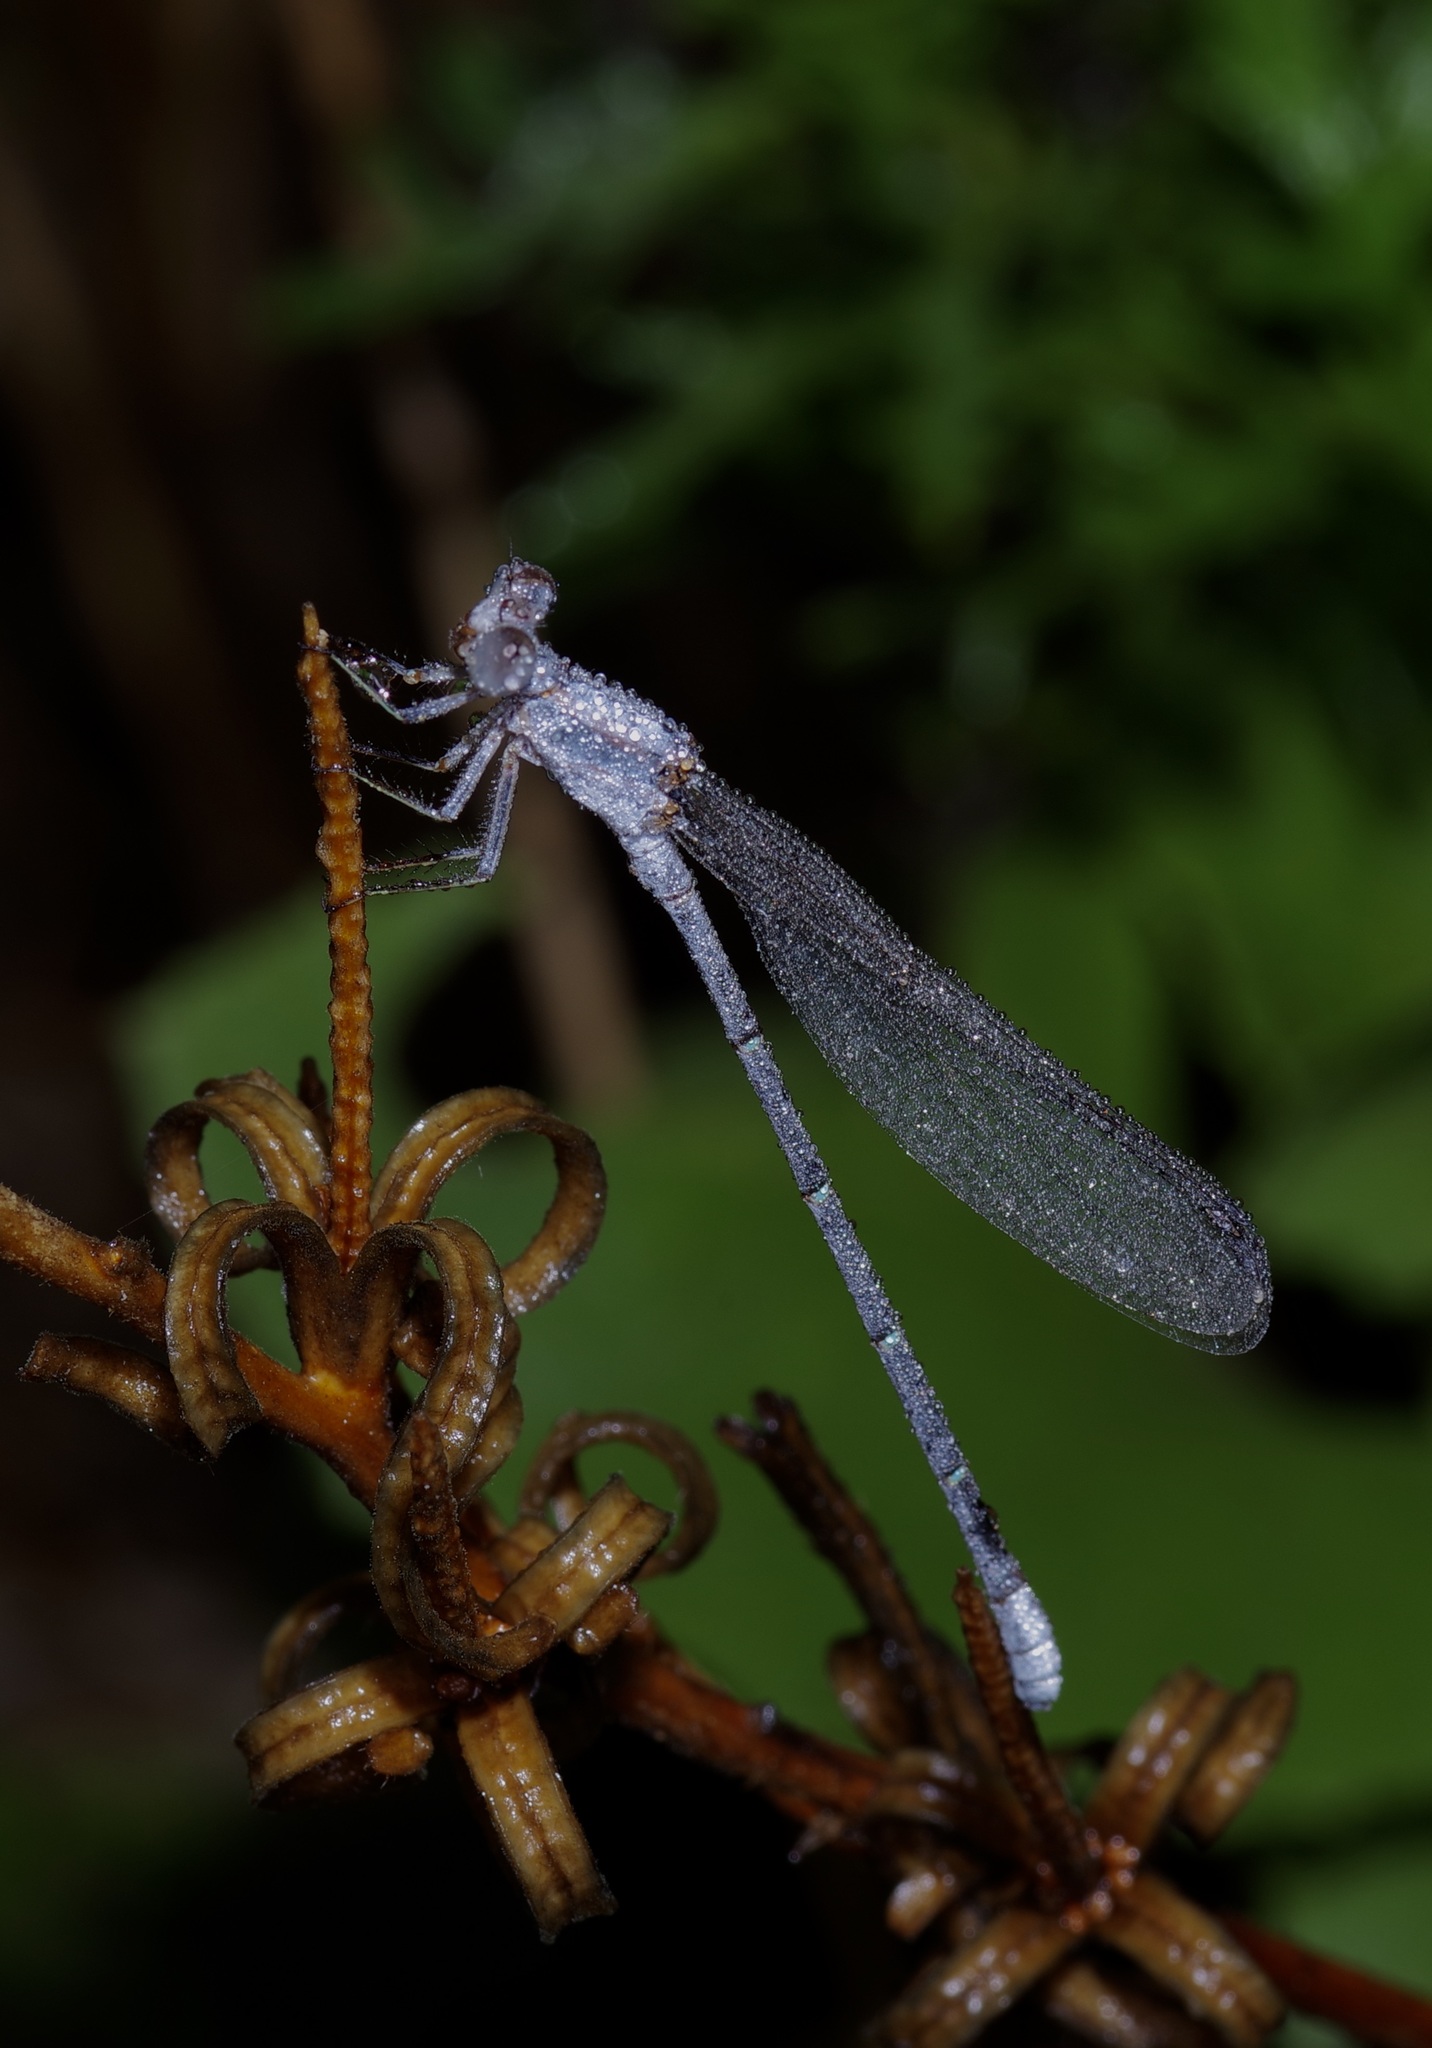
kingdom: Animalia
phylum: Arthropoda
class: Insecta
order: Odonata
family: Coenagrionidae
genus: Argia
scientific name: Argia moesta
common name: Powdered dancer
